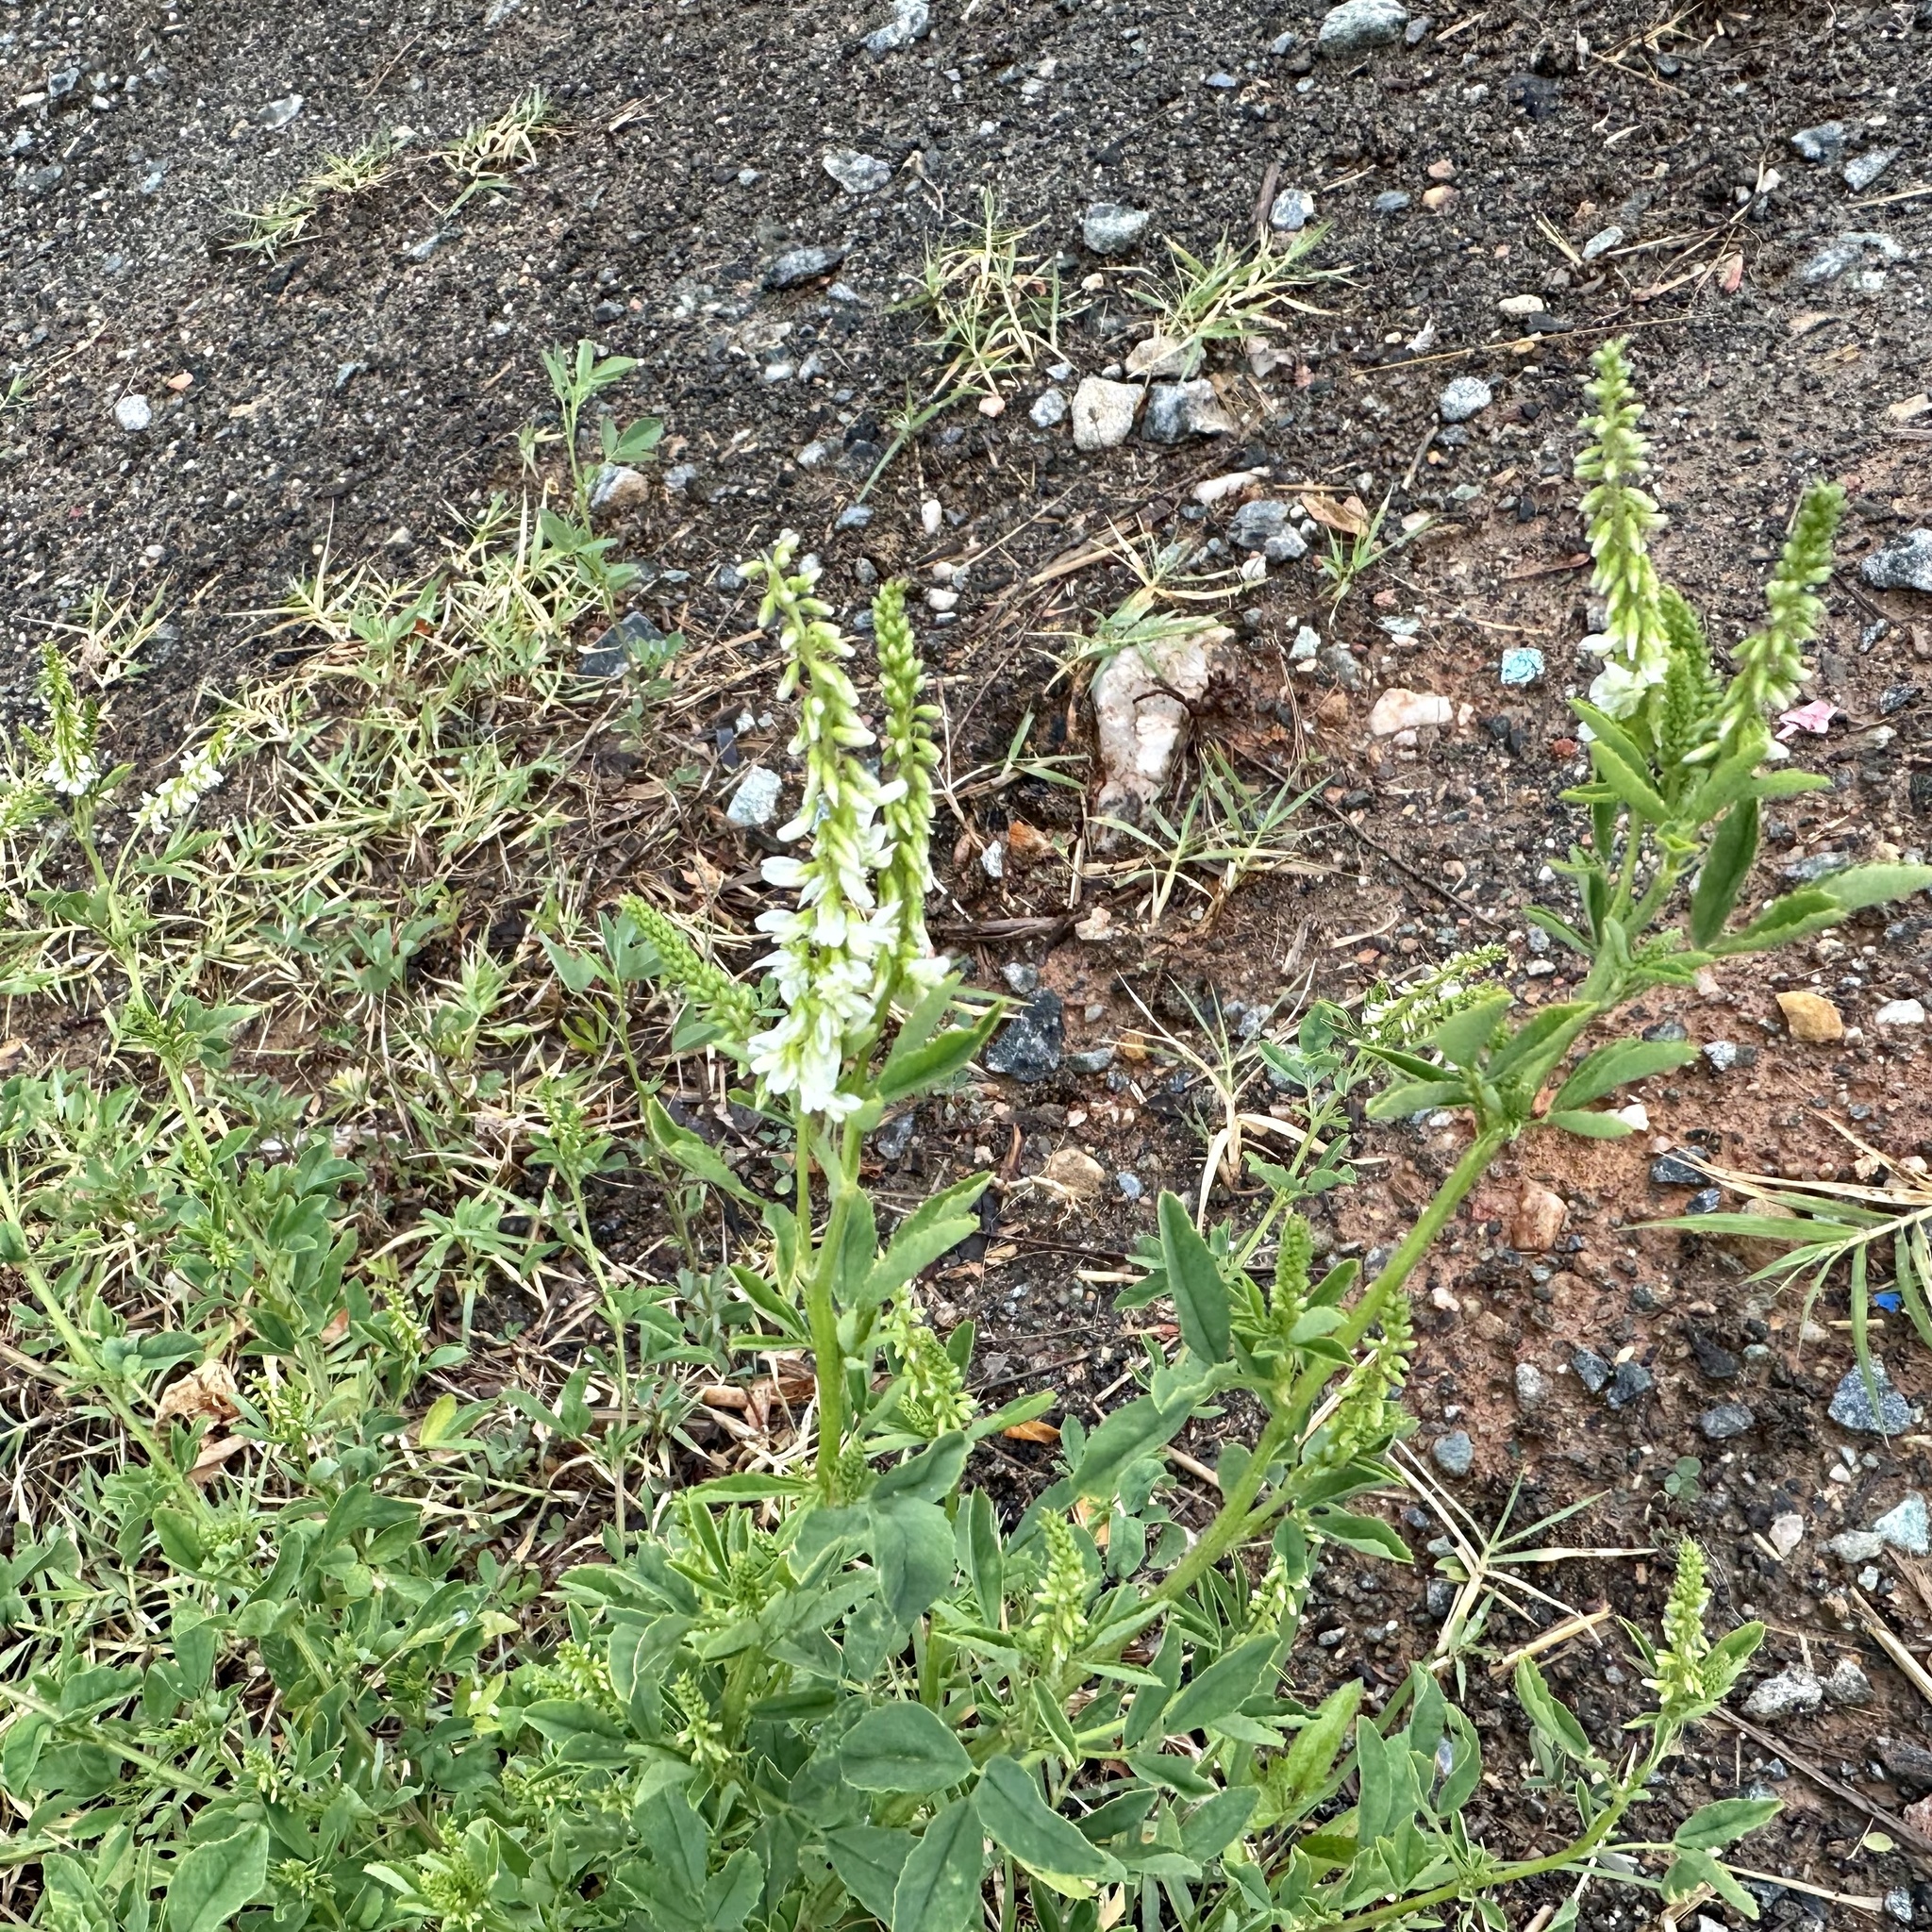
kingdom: Plantae
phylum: Tracheophyta
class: Magnoliopsida
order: Fabales
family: Fabaceae
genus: Melilotus
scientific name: Melilotus albus
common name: White melilot
